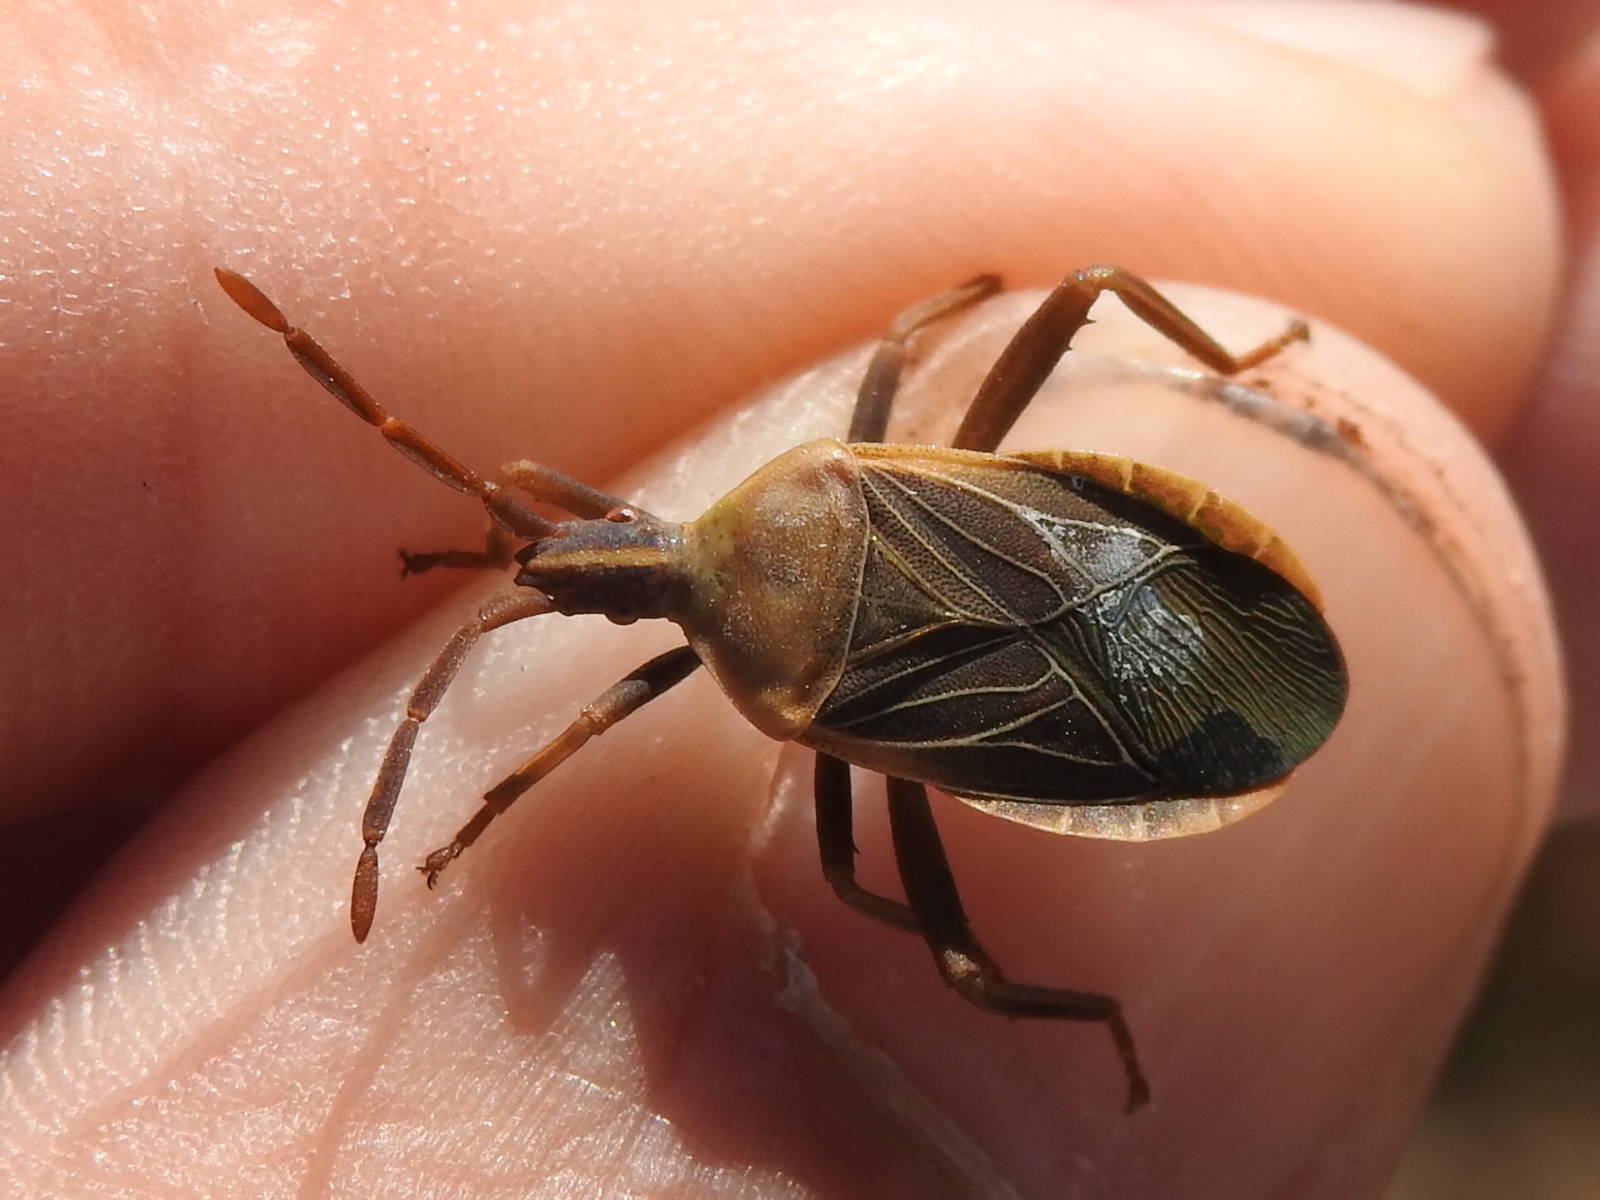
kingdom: Animalia
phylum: Arthropoda
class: Insecta
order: Hemiptera
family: Coreidae
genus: Chelinidea
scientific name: Chelinidea vittiger
